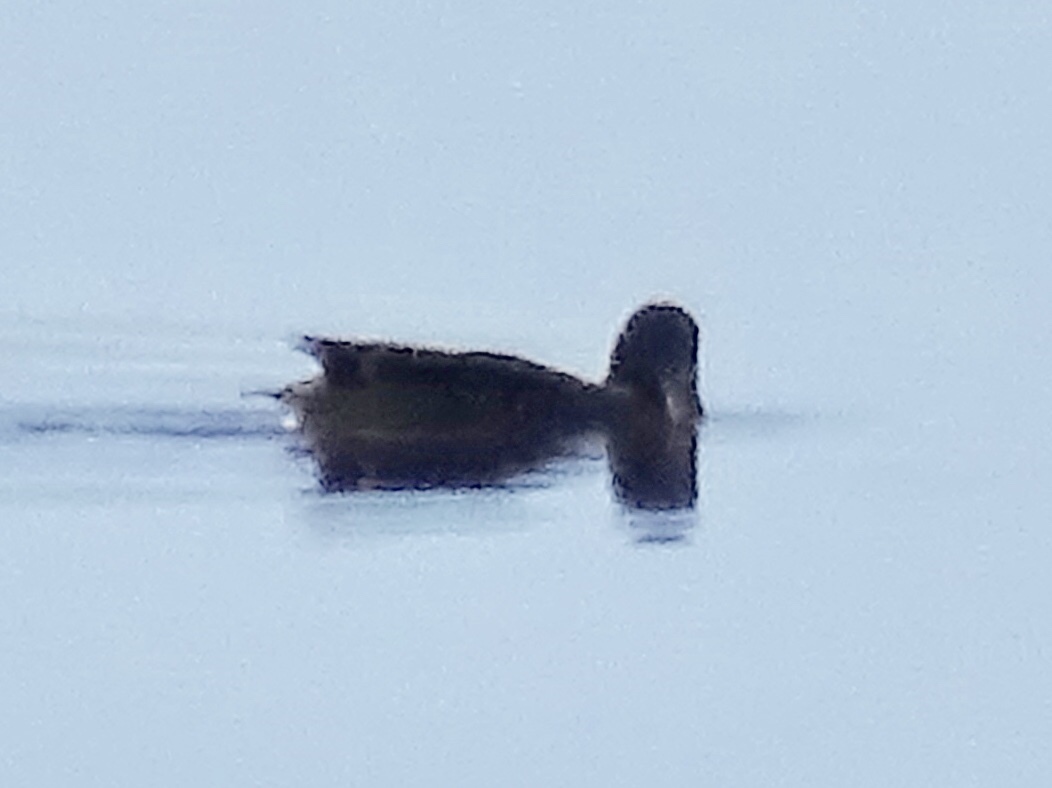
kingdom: Animalia
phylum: Chordata
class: Aves
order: Anseriformes
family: Anatidae
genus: Anas
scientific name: Anas acuta
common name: Northern pintail
